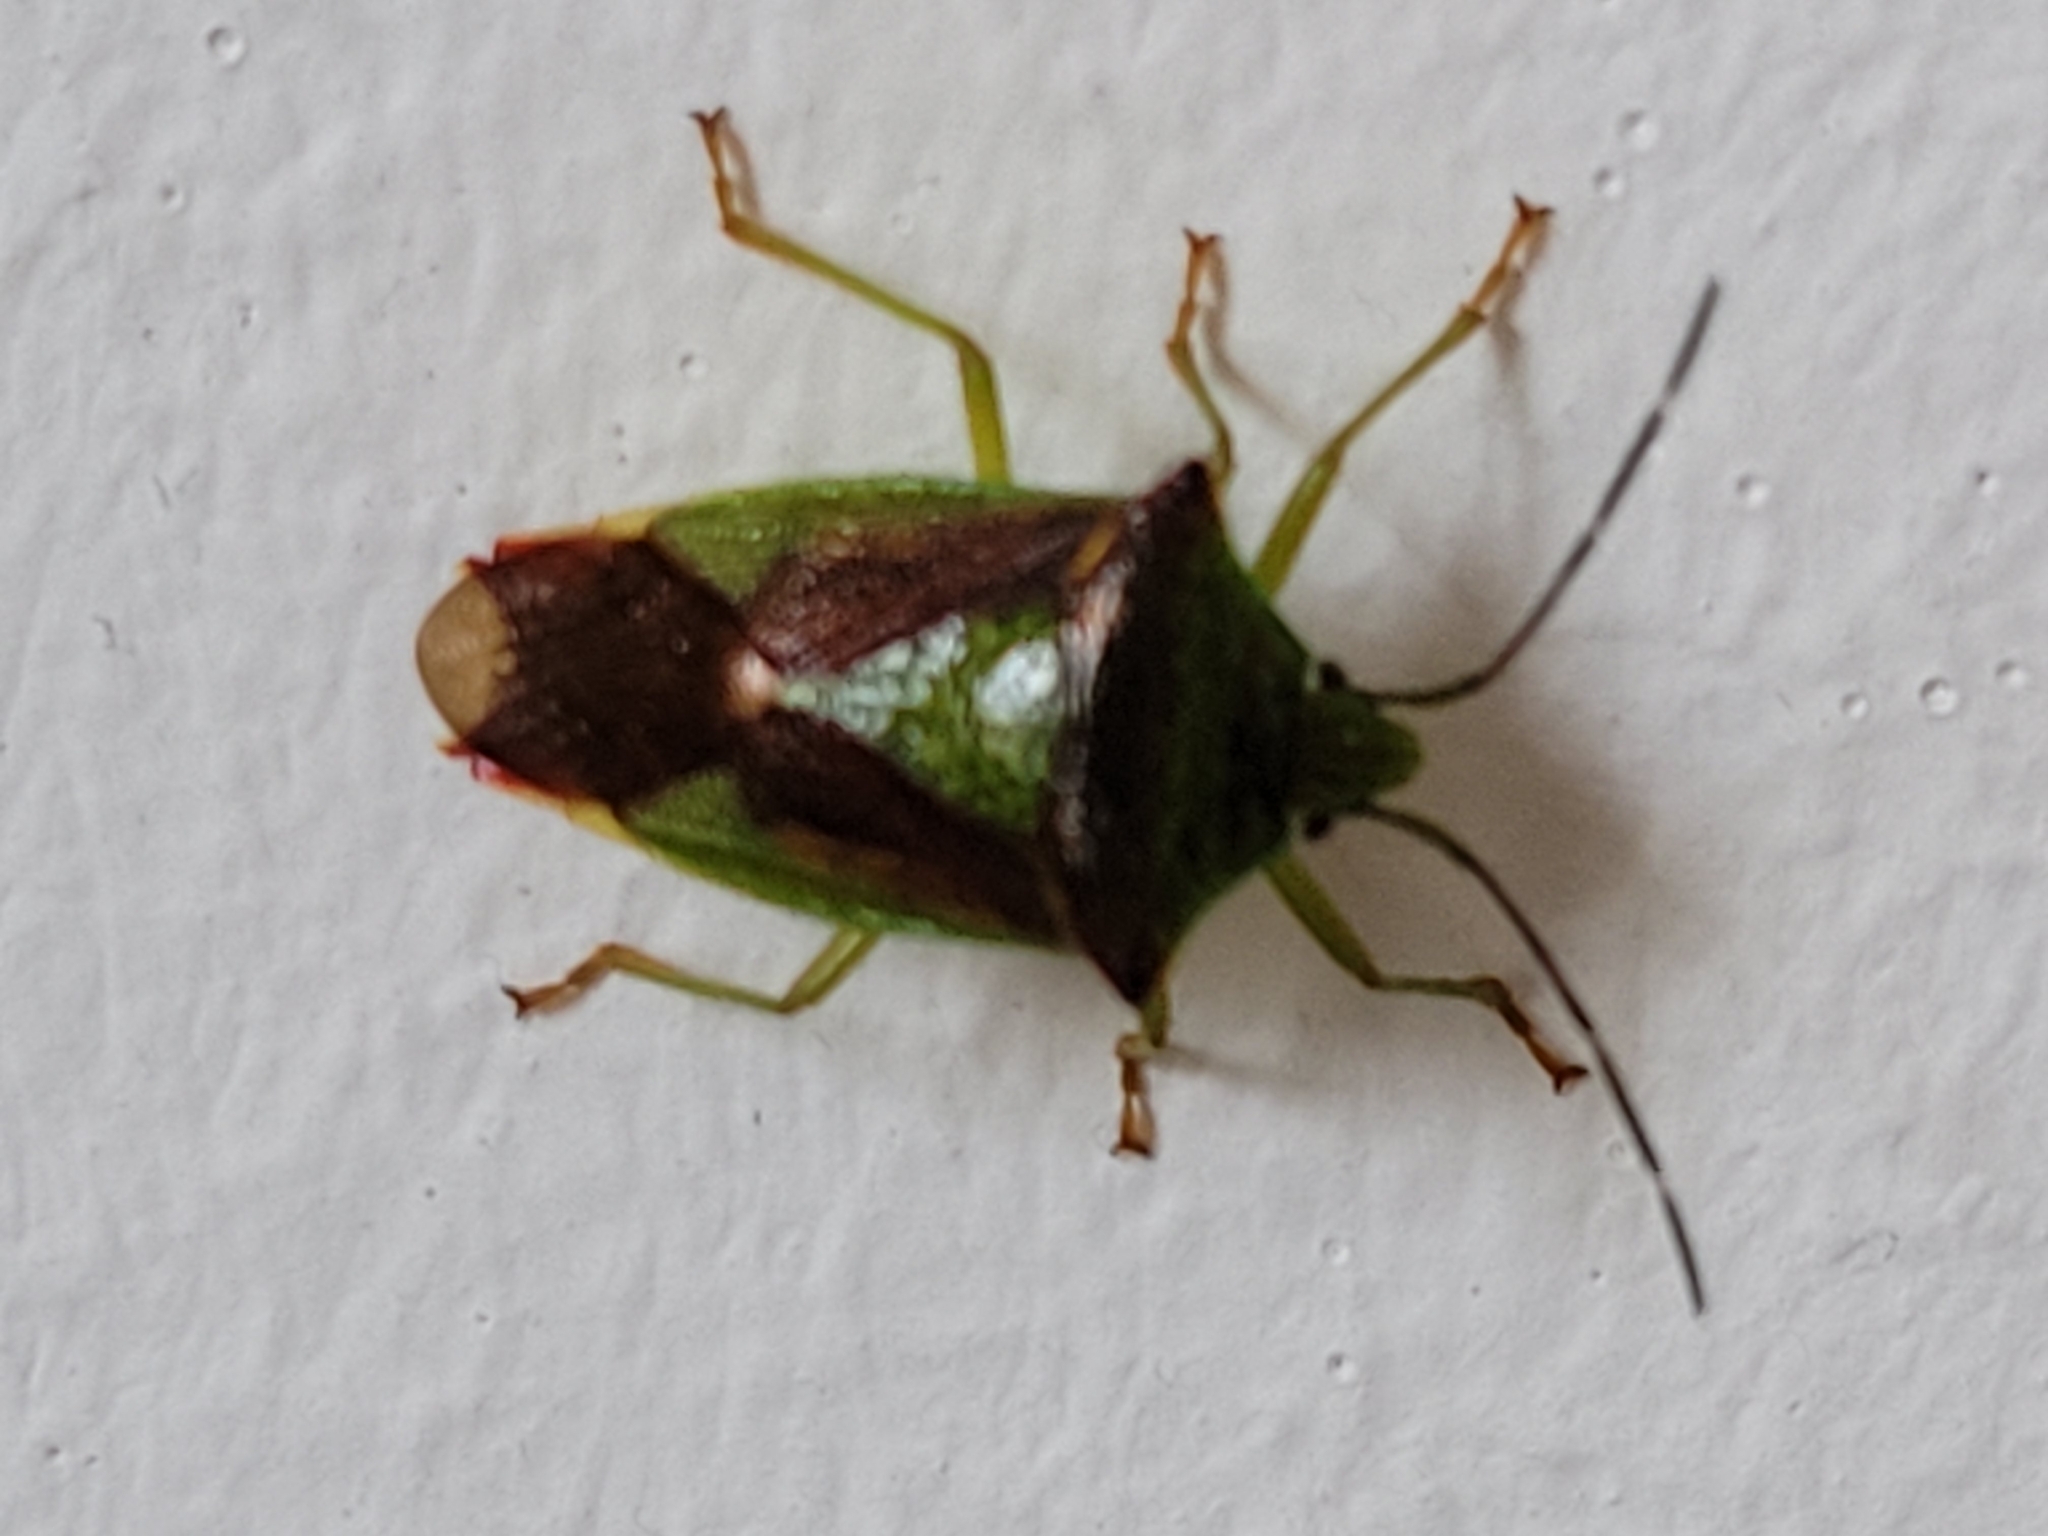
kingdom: Animalia
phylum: Arthropoda
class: Insecta
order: Hemiptera
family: Acanthosomatidae
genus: Acanthosoma
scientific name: Acanthosoma haemorrhoidale
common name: Hawthorn shieldbug
